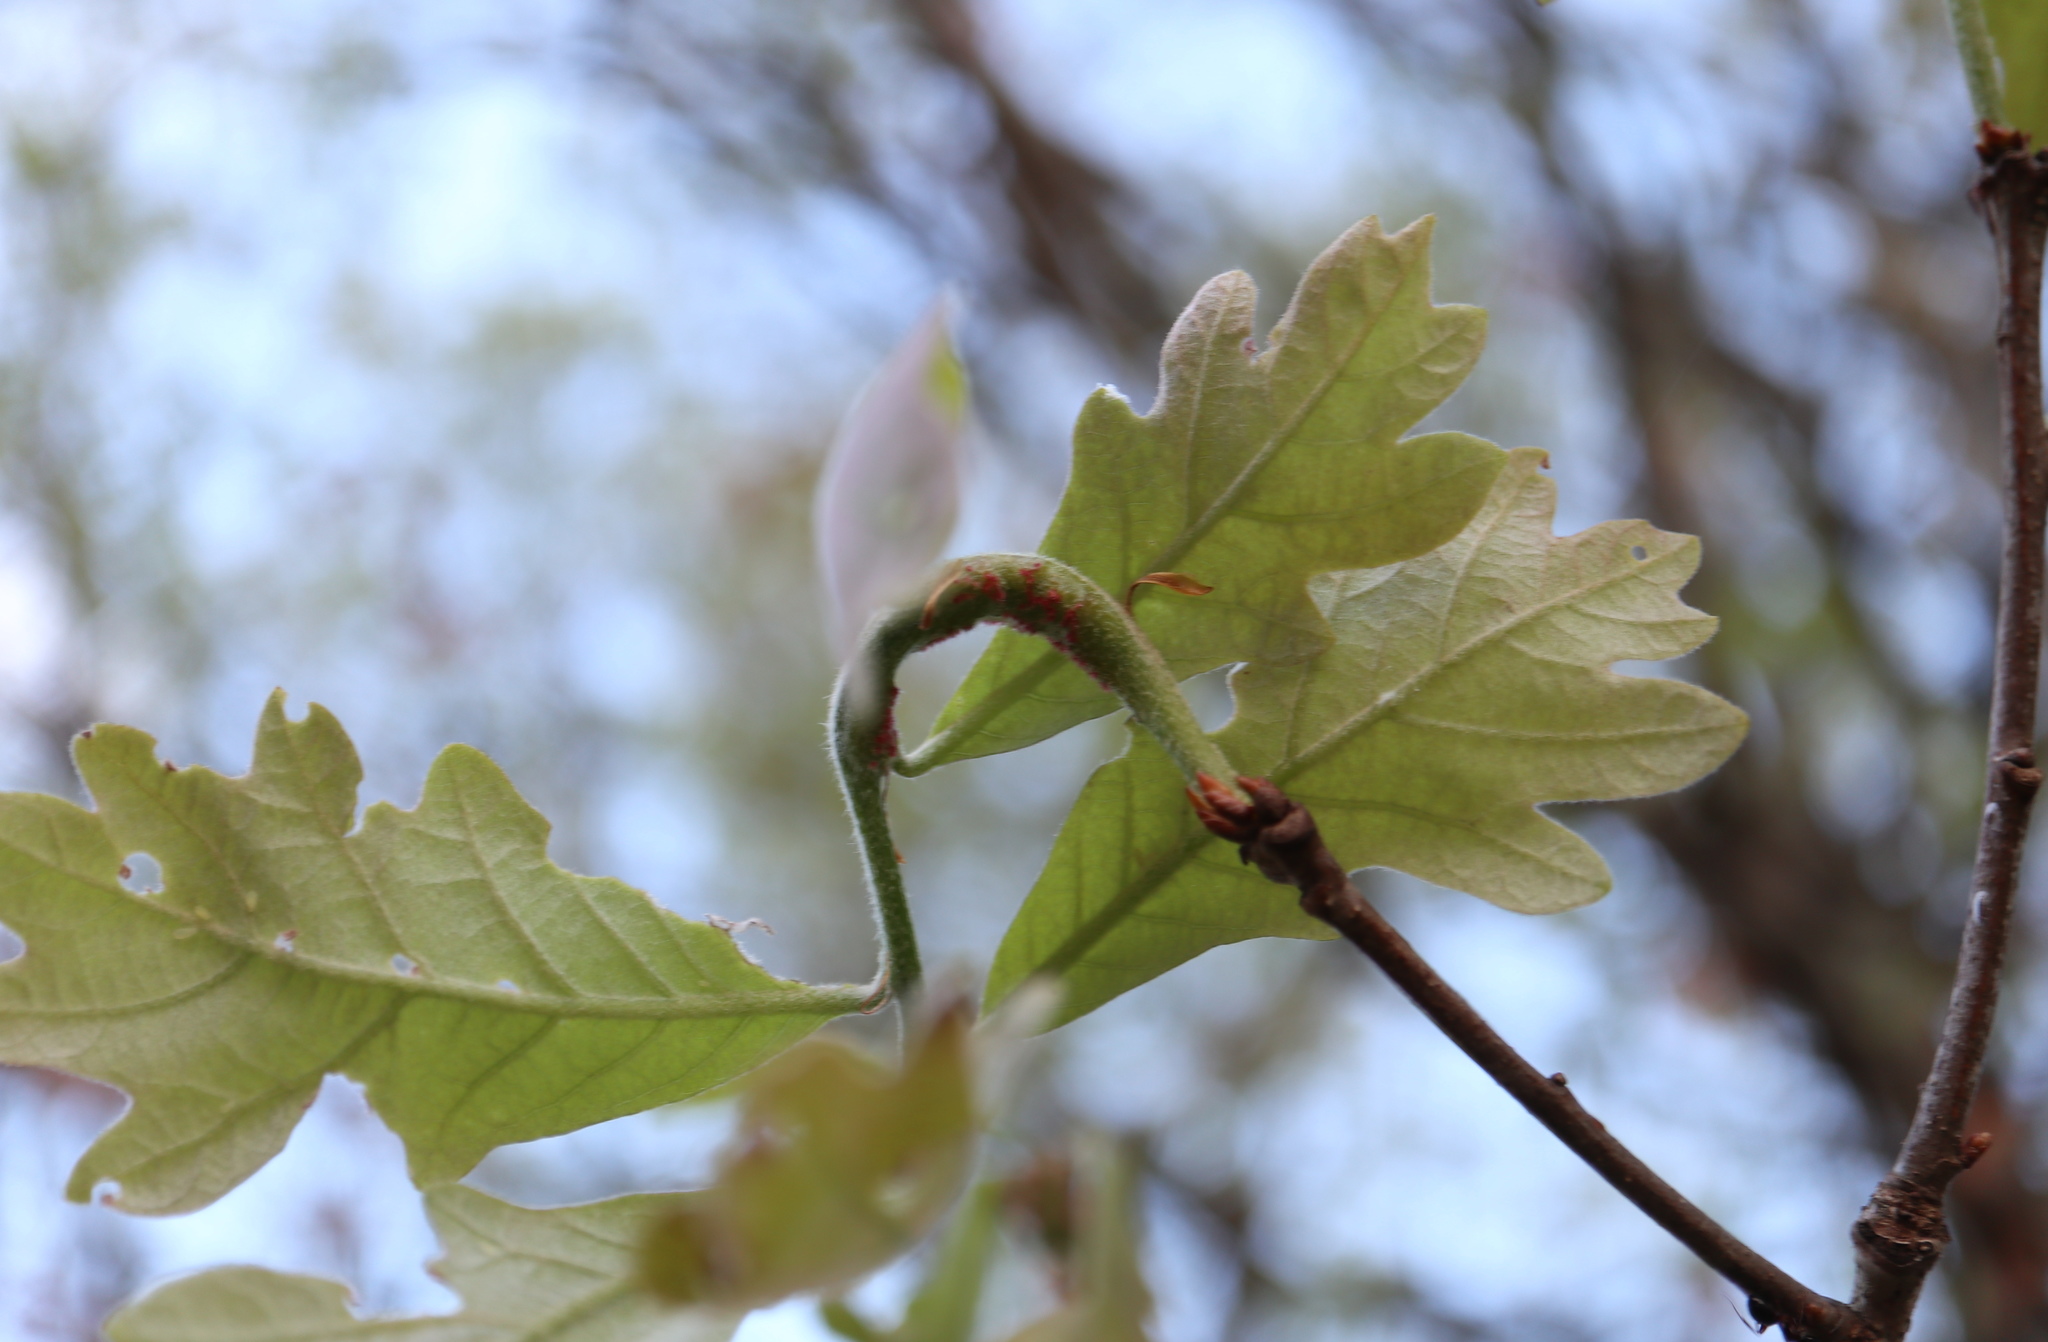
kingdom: Animalia
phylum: Arthropoda
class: Insecta
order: Hymenoptera
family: Cynipidae
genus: Neuroterus
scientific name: Neuroterus quercusbaccarum
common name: Common spangle gall
